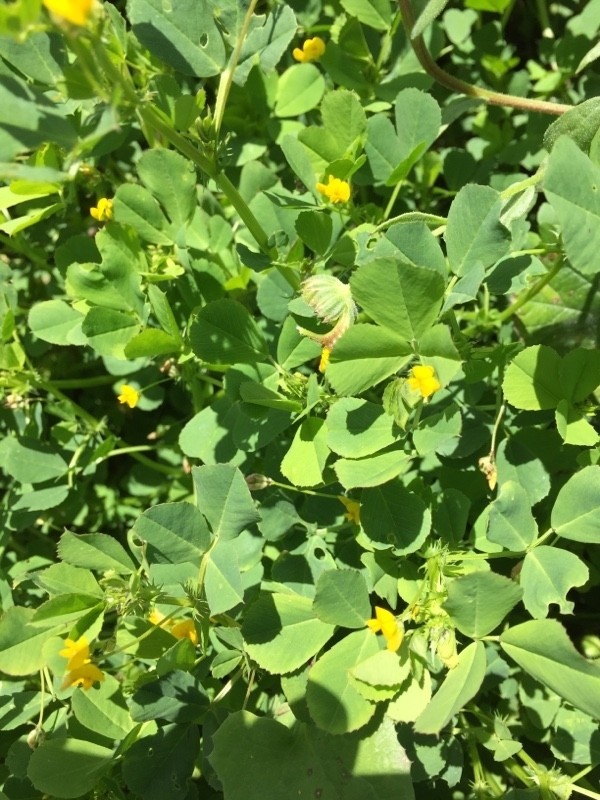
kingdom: Plantae
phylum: Tracheophyta
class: Magnoliopsida
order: Fabales
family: Fabaceae
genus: Medicago
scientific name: Medicago polymorpha
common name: Burclover
